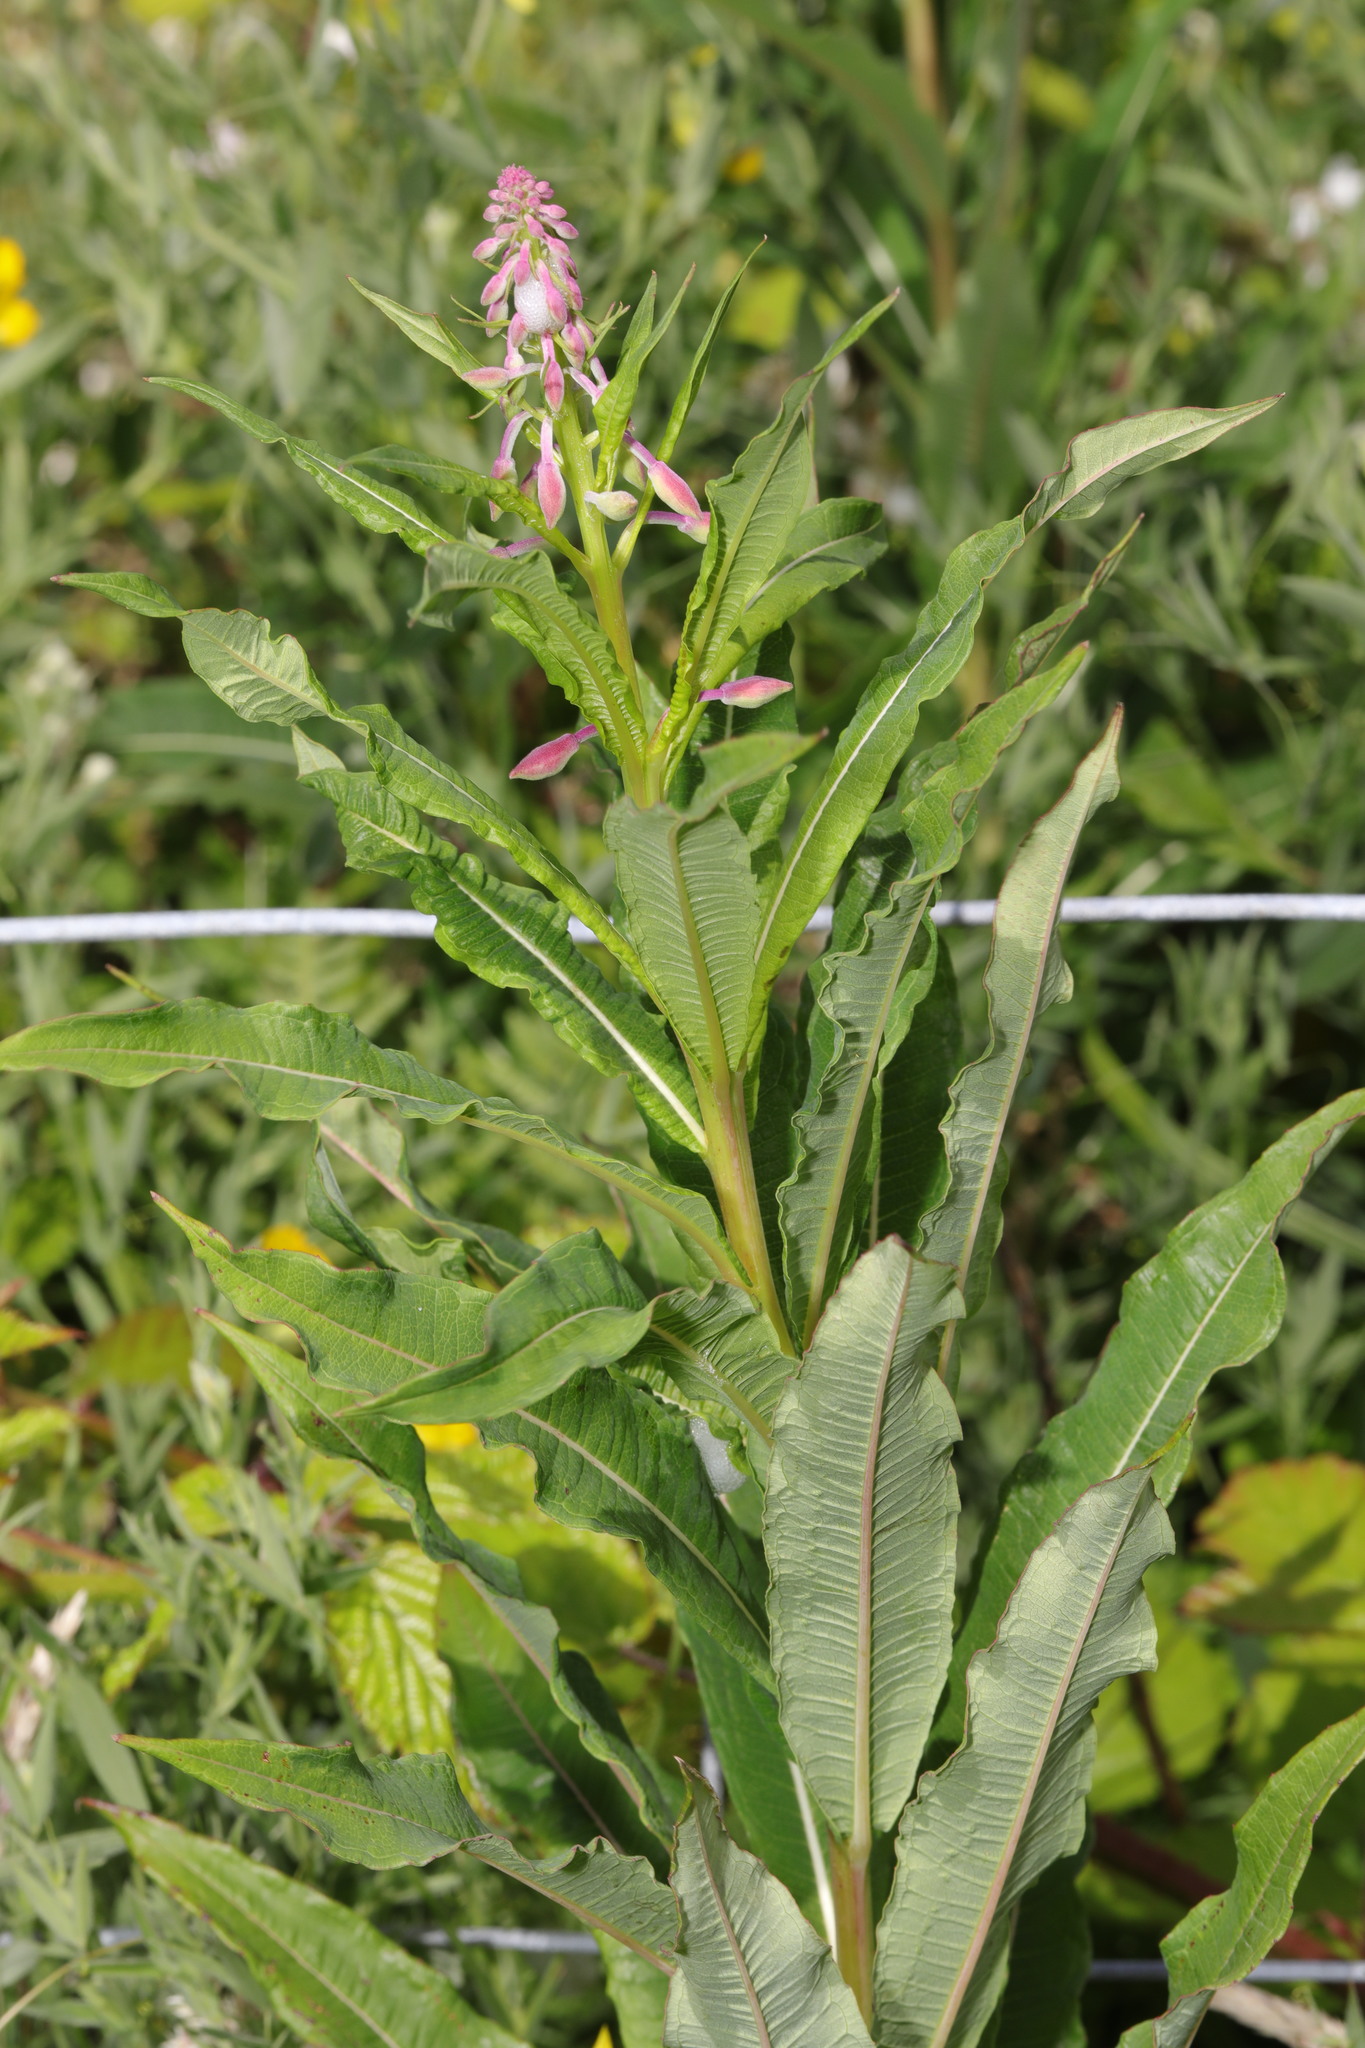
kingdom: Plantae
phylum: Tracheophyta
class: Magnoliopsida
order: Myrtales
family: Onagraceae
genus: Chamaenerion
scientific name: Chamaenerion angustifolium
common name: Fireweed
